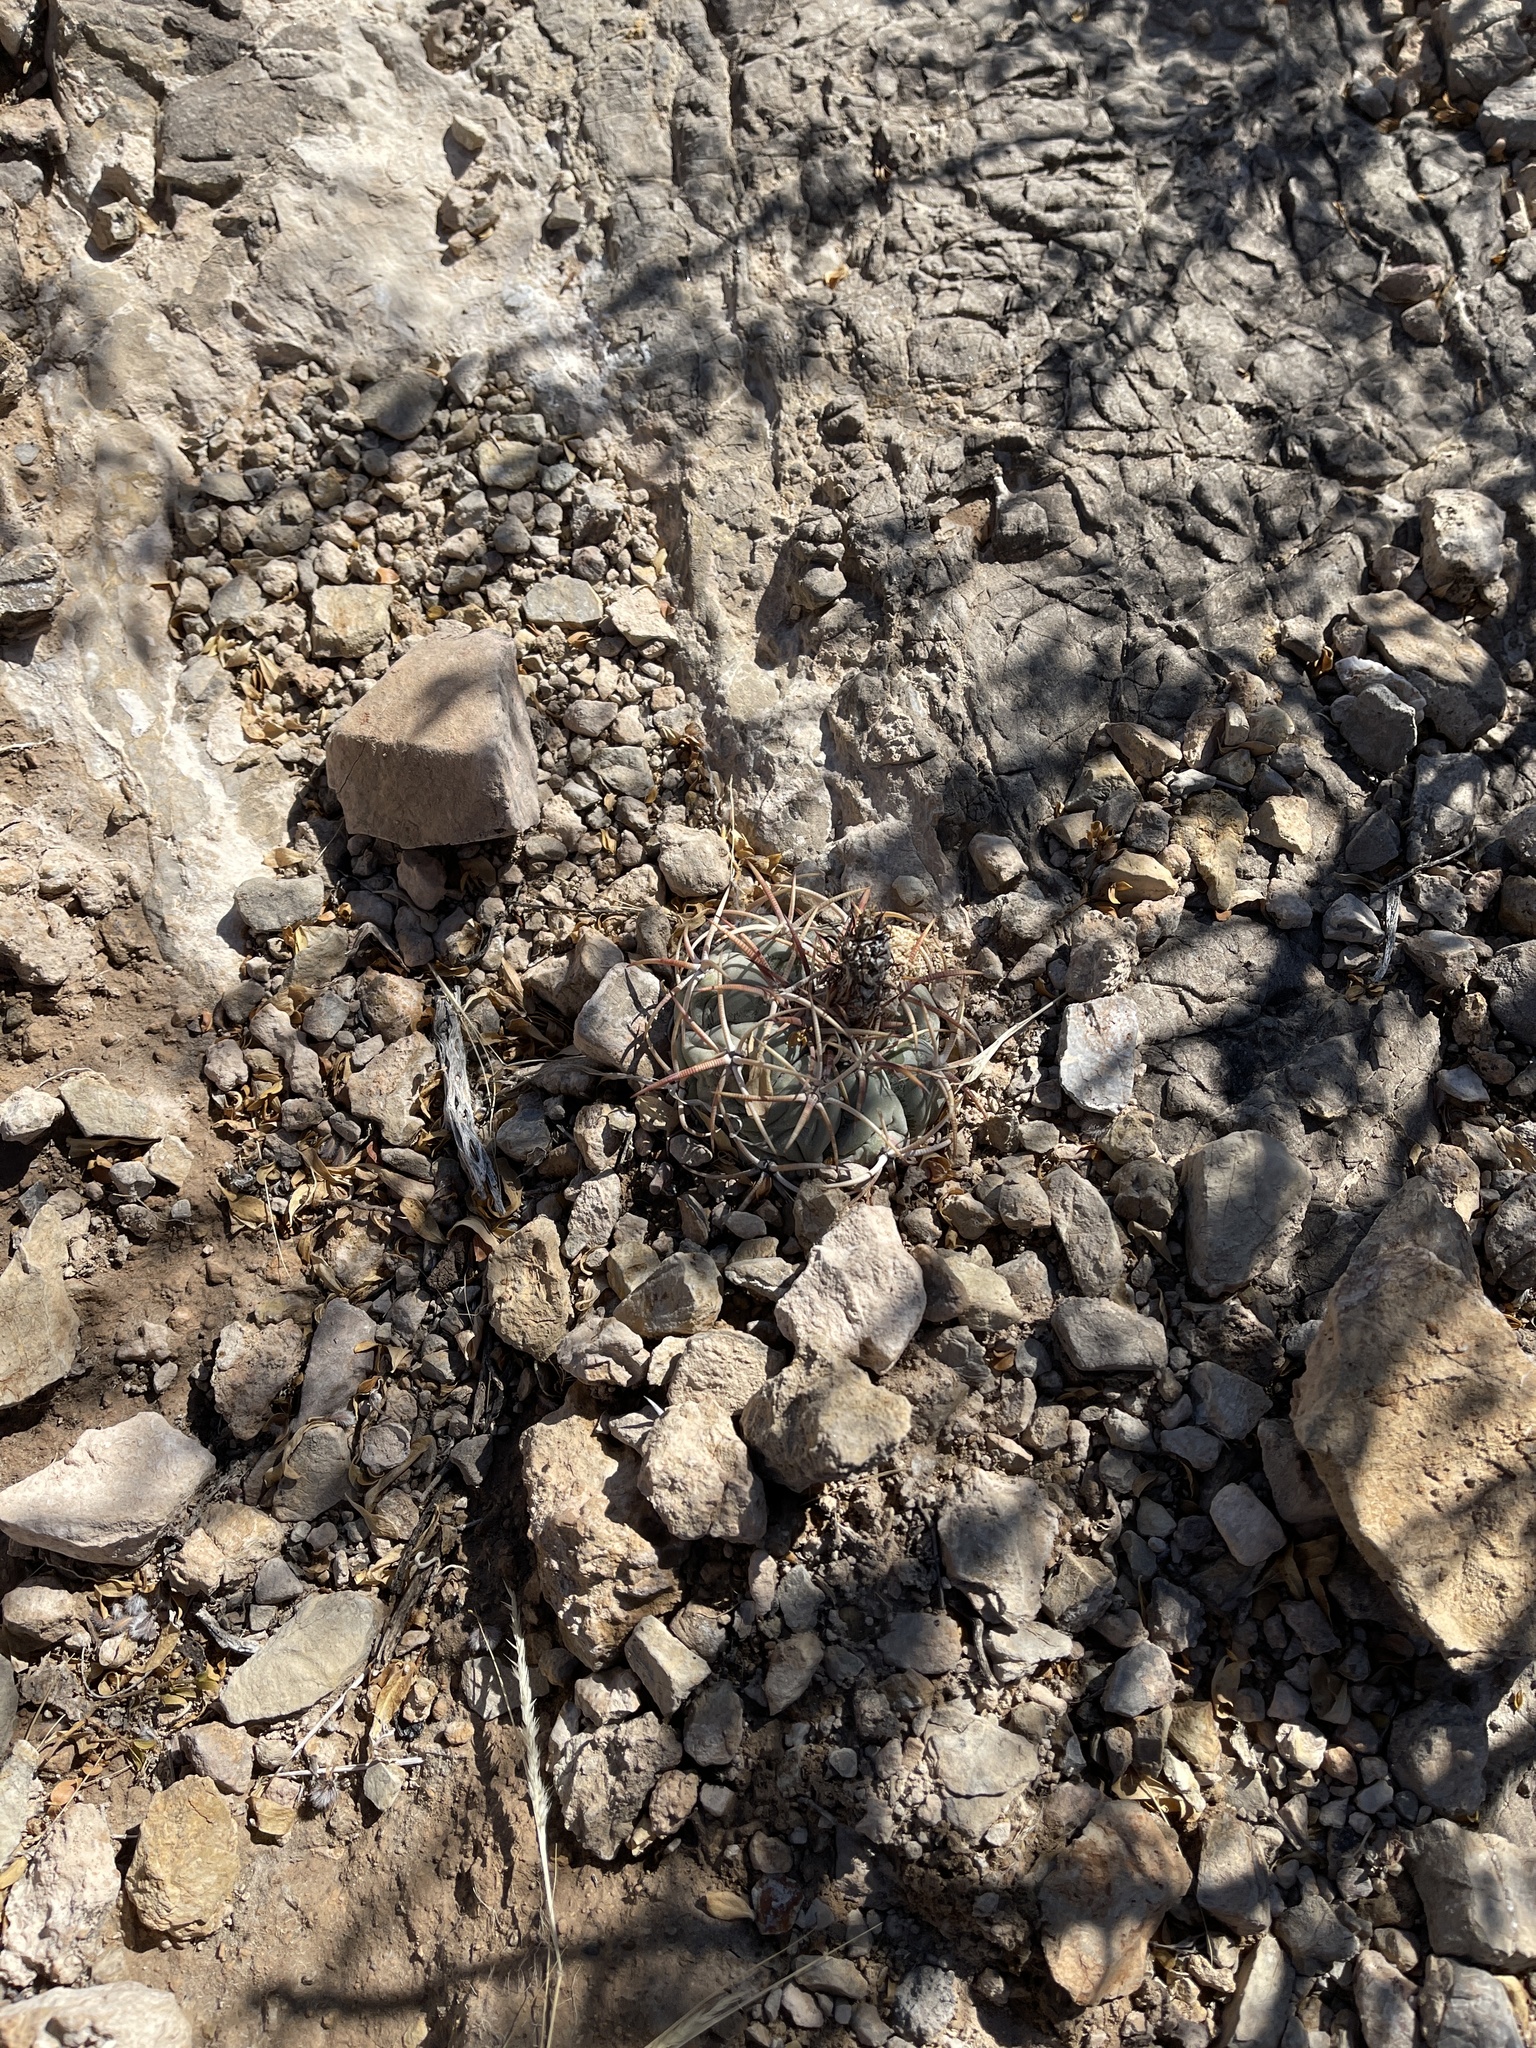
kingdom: Plantae
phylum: Tracheophyta
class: Magnoliopsida
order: Caryophyllales
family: Cactaceae
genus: Echinocactus
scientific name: Echinocactus horizonthalonius
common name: Devilshead
